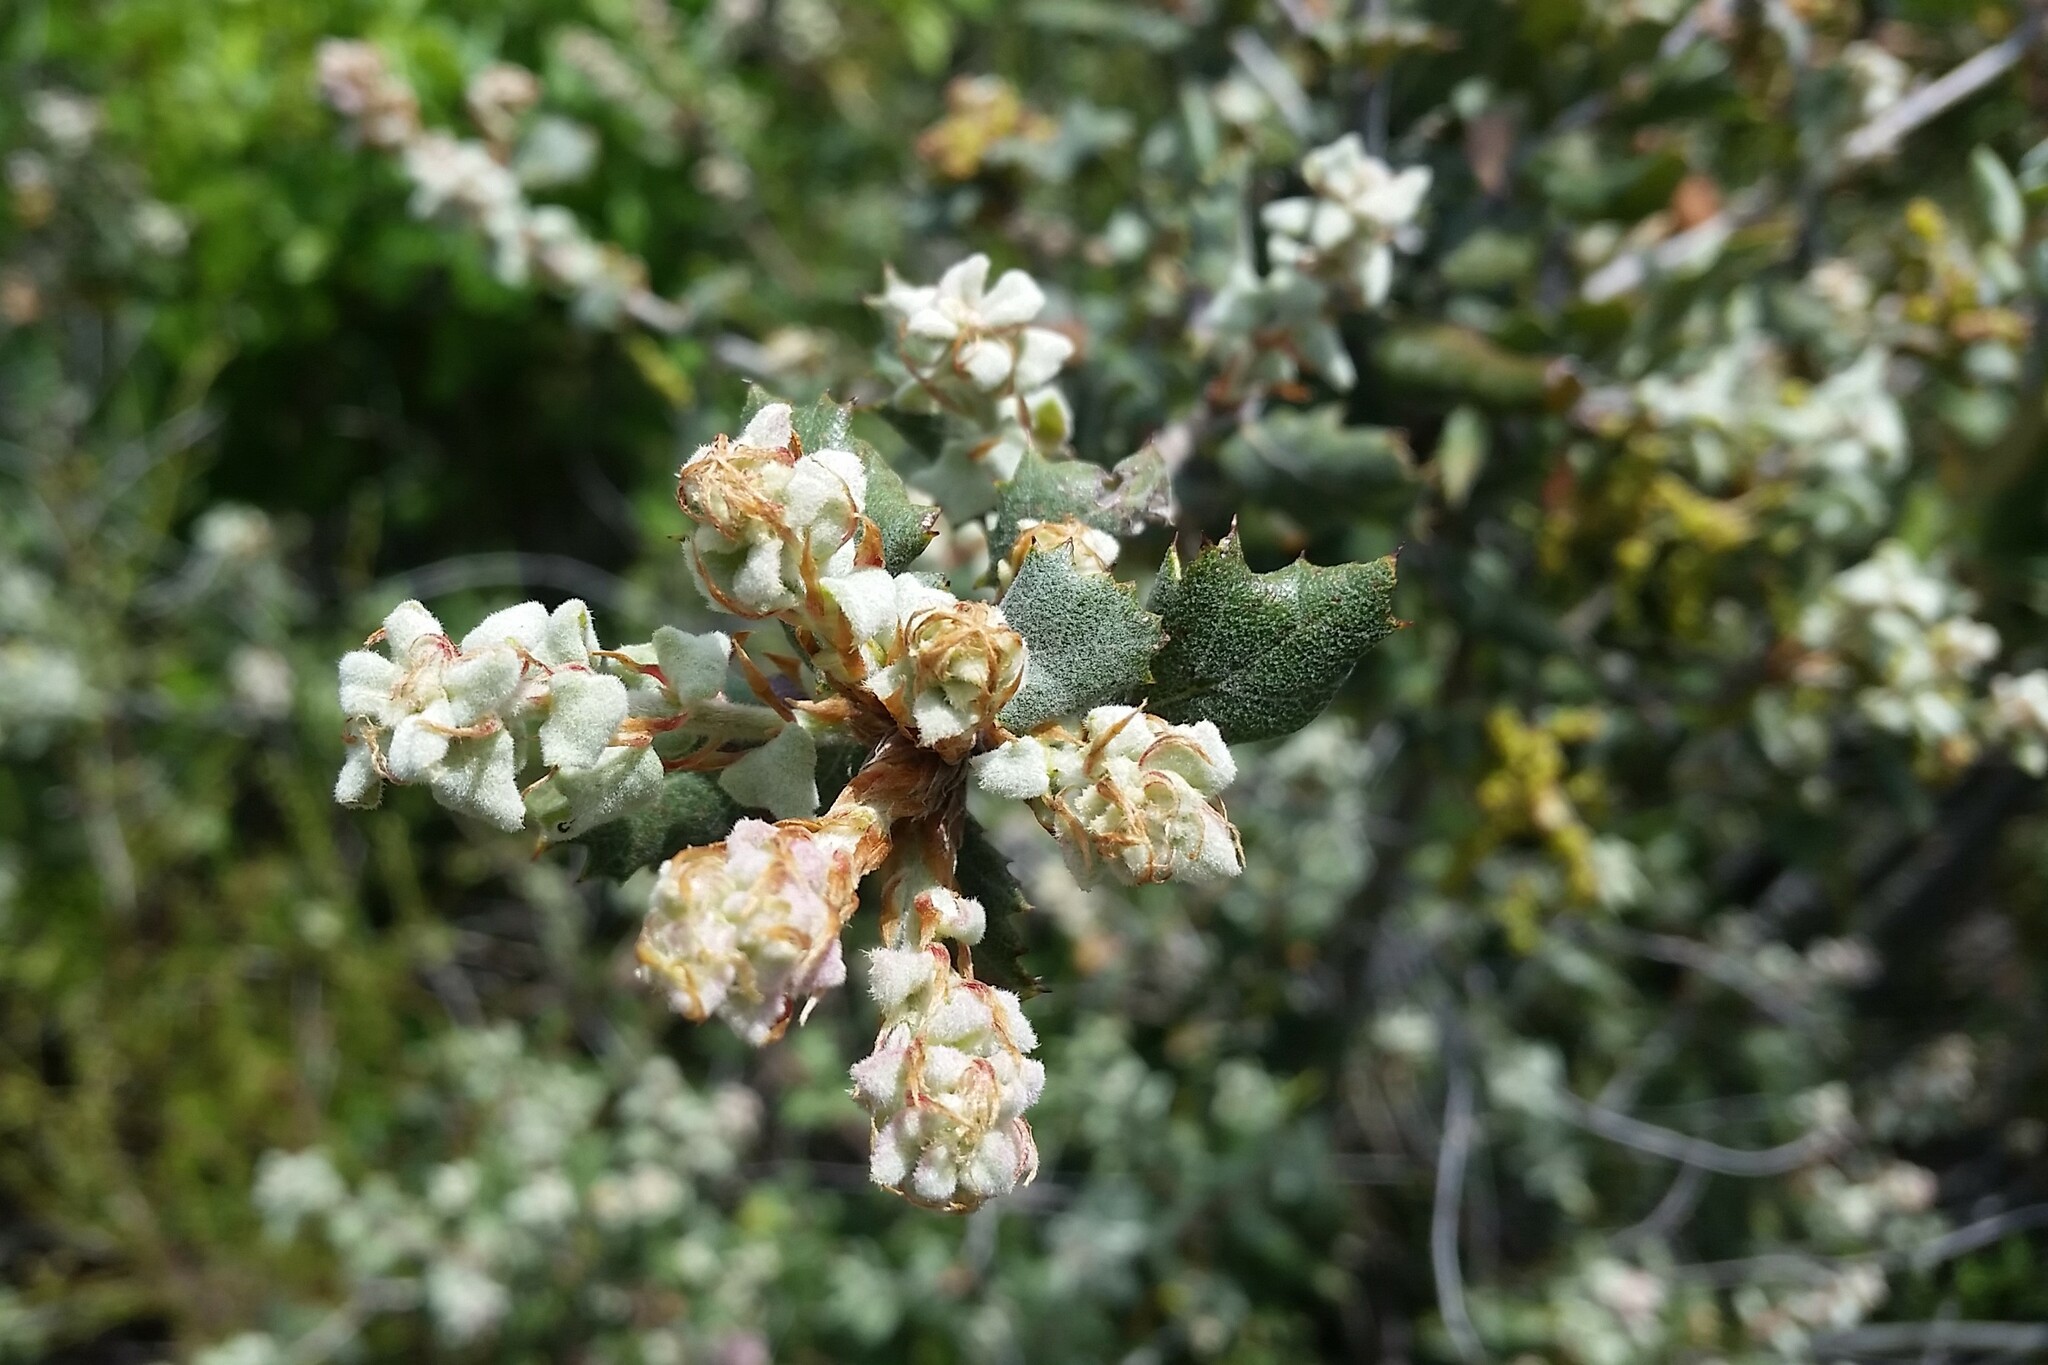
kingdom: Plantae
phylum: Tracheophyta
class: Magnoliopsida
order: Fagales
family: Fagaceae
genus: Quercus
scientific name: Quercus durata
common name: Leather oak
